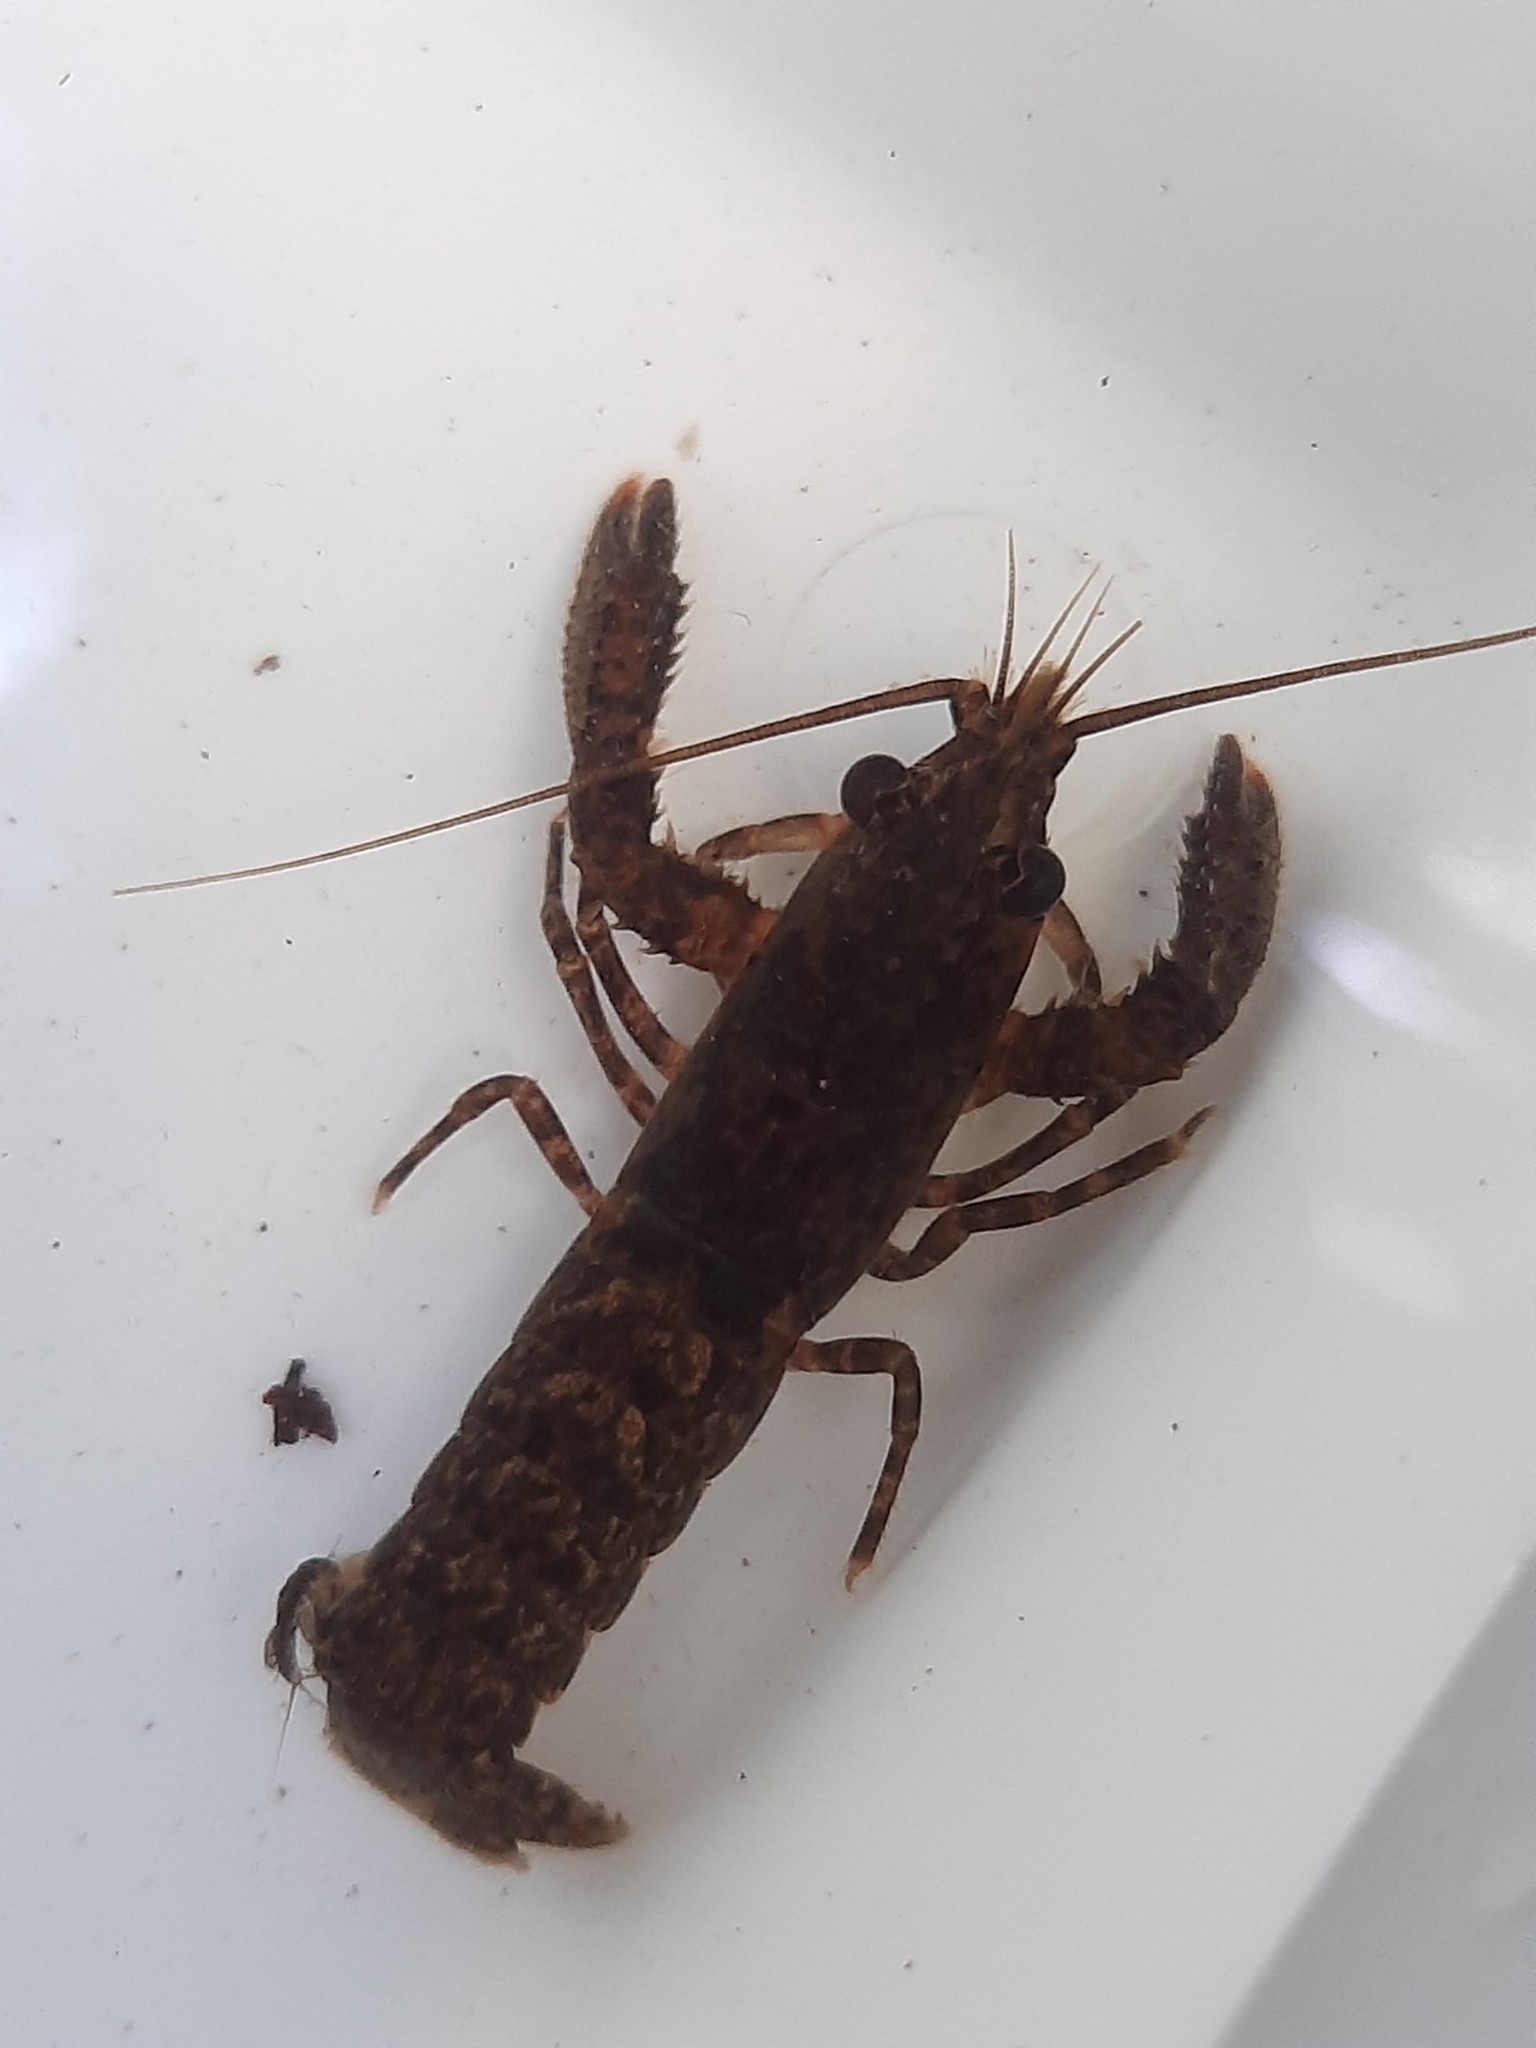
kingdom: Animalia
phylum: Arthropoda
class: Malacostraca
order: Decapoda
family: Parastacidae
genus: Paranephrops
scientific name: Paranephrops planifrons
